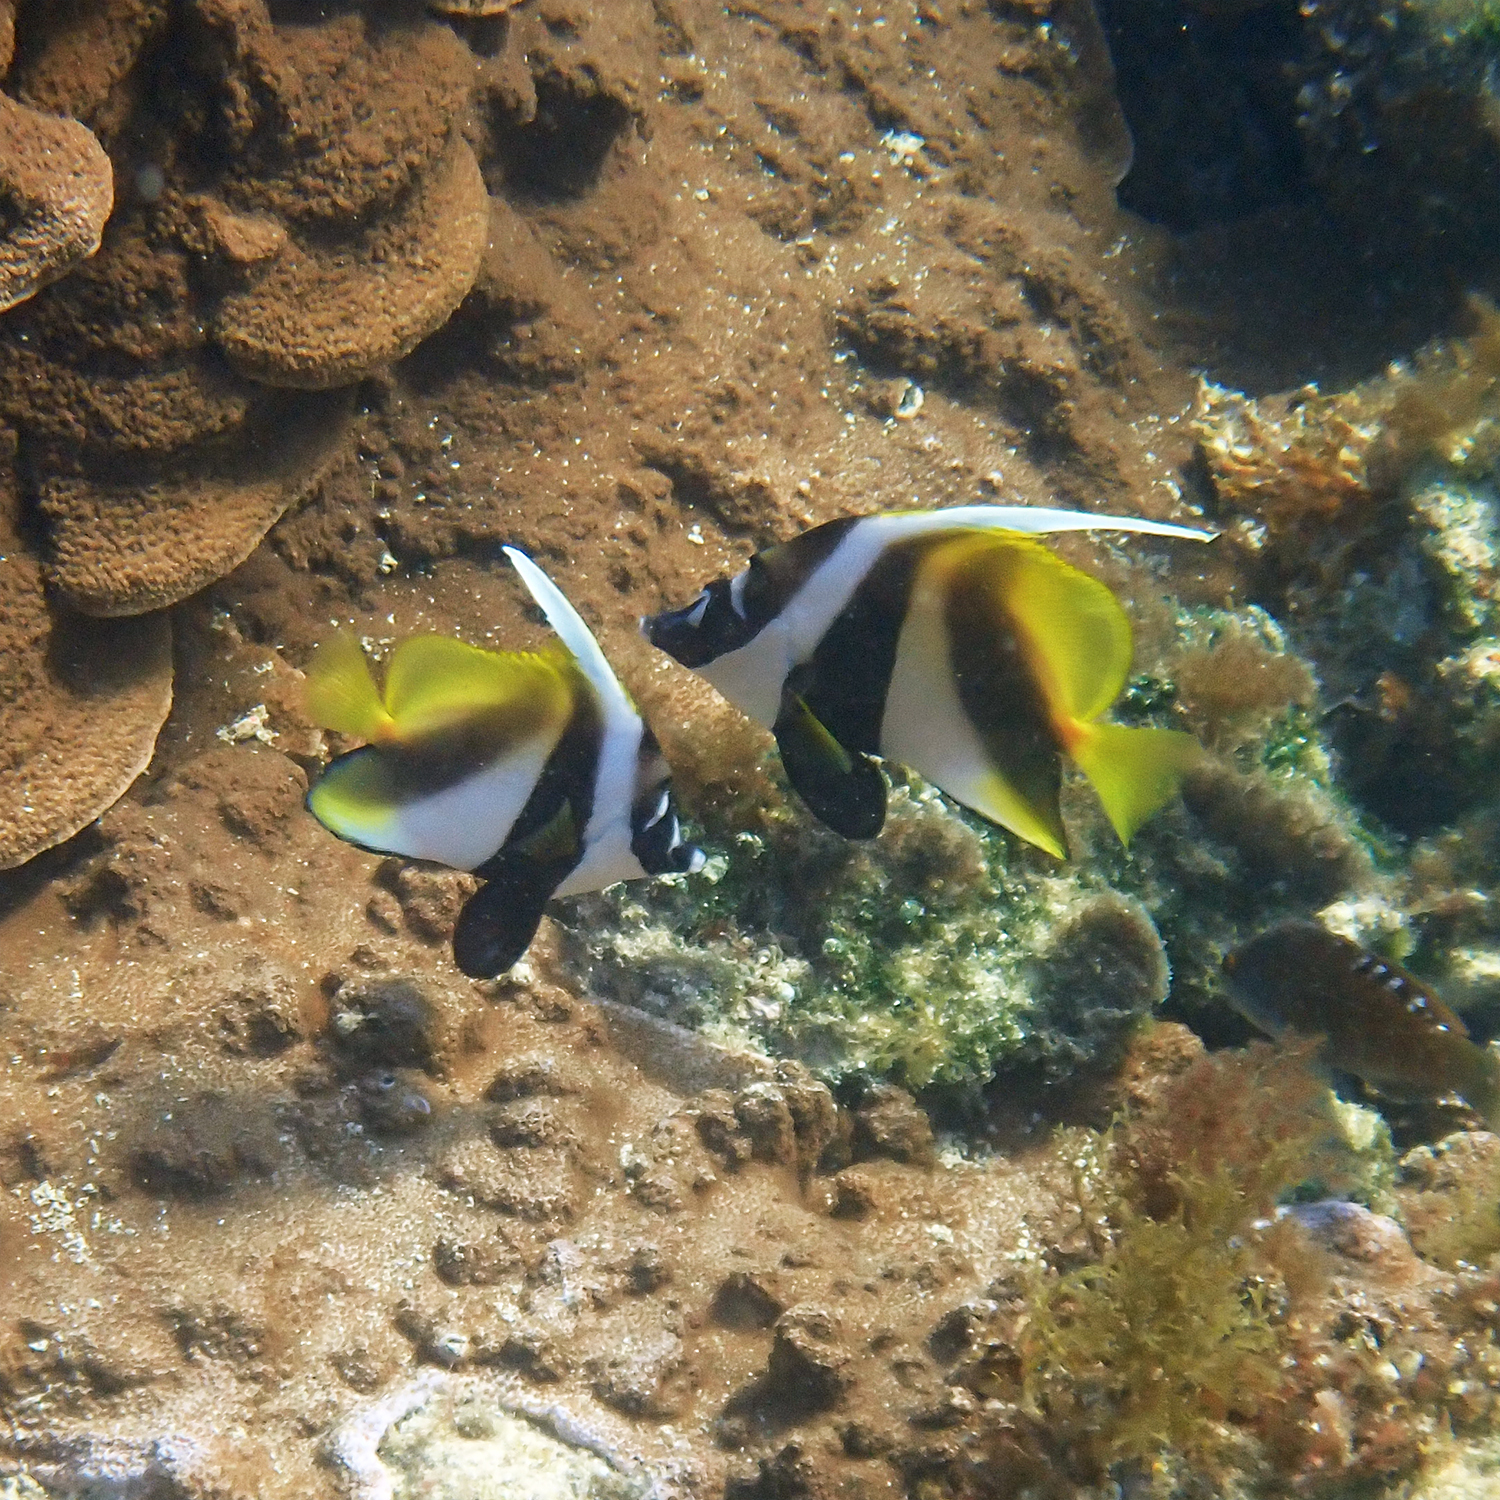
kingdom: Animalia
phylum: Chordata
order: Perciformes
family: Chaetodontidae
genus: Heniochus
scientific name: Heniochus monoceros
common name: Masked bannerfish
